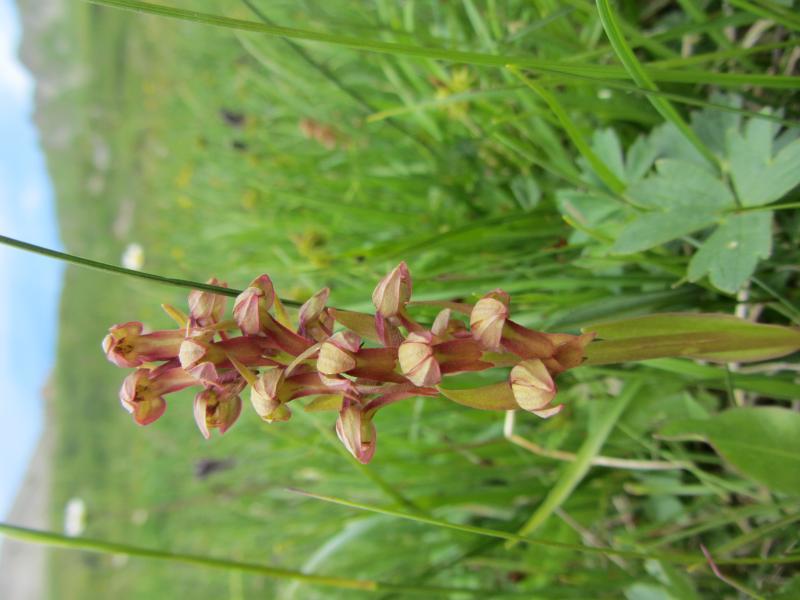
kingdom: Plantae
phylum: Tracheophyta
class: Liliopsida
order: Asparagales
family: Orchidaceae
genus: Dactylorhiza
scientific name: Dactylorhiza viridis
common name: Longbract frog orchid
